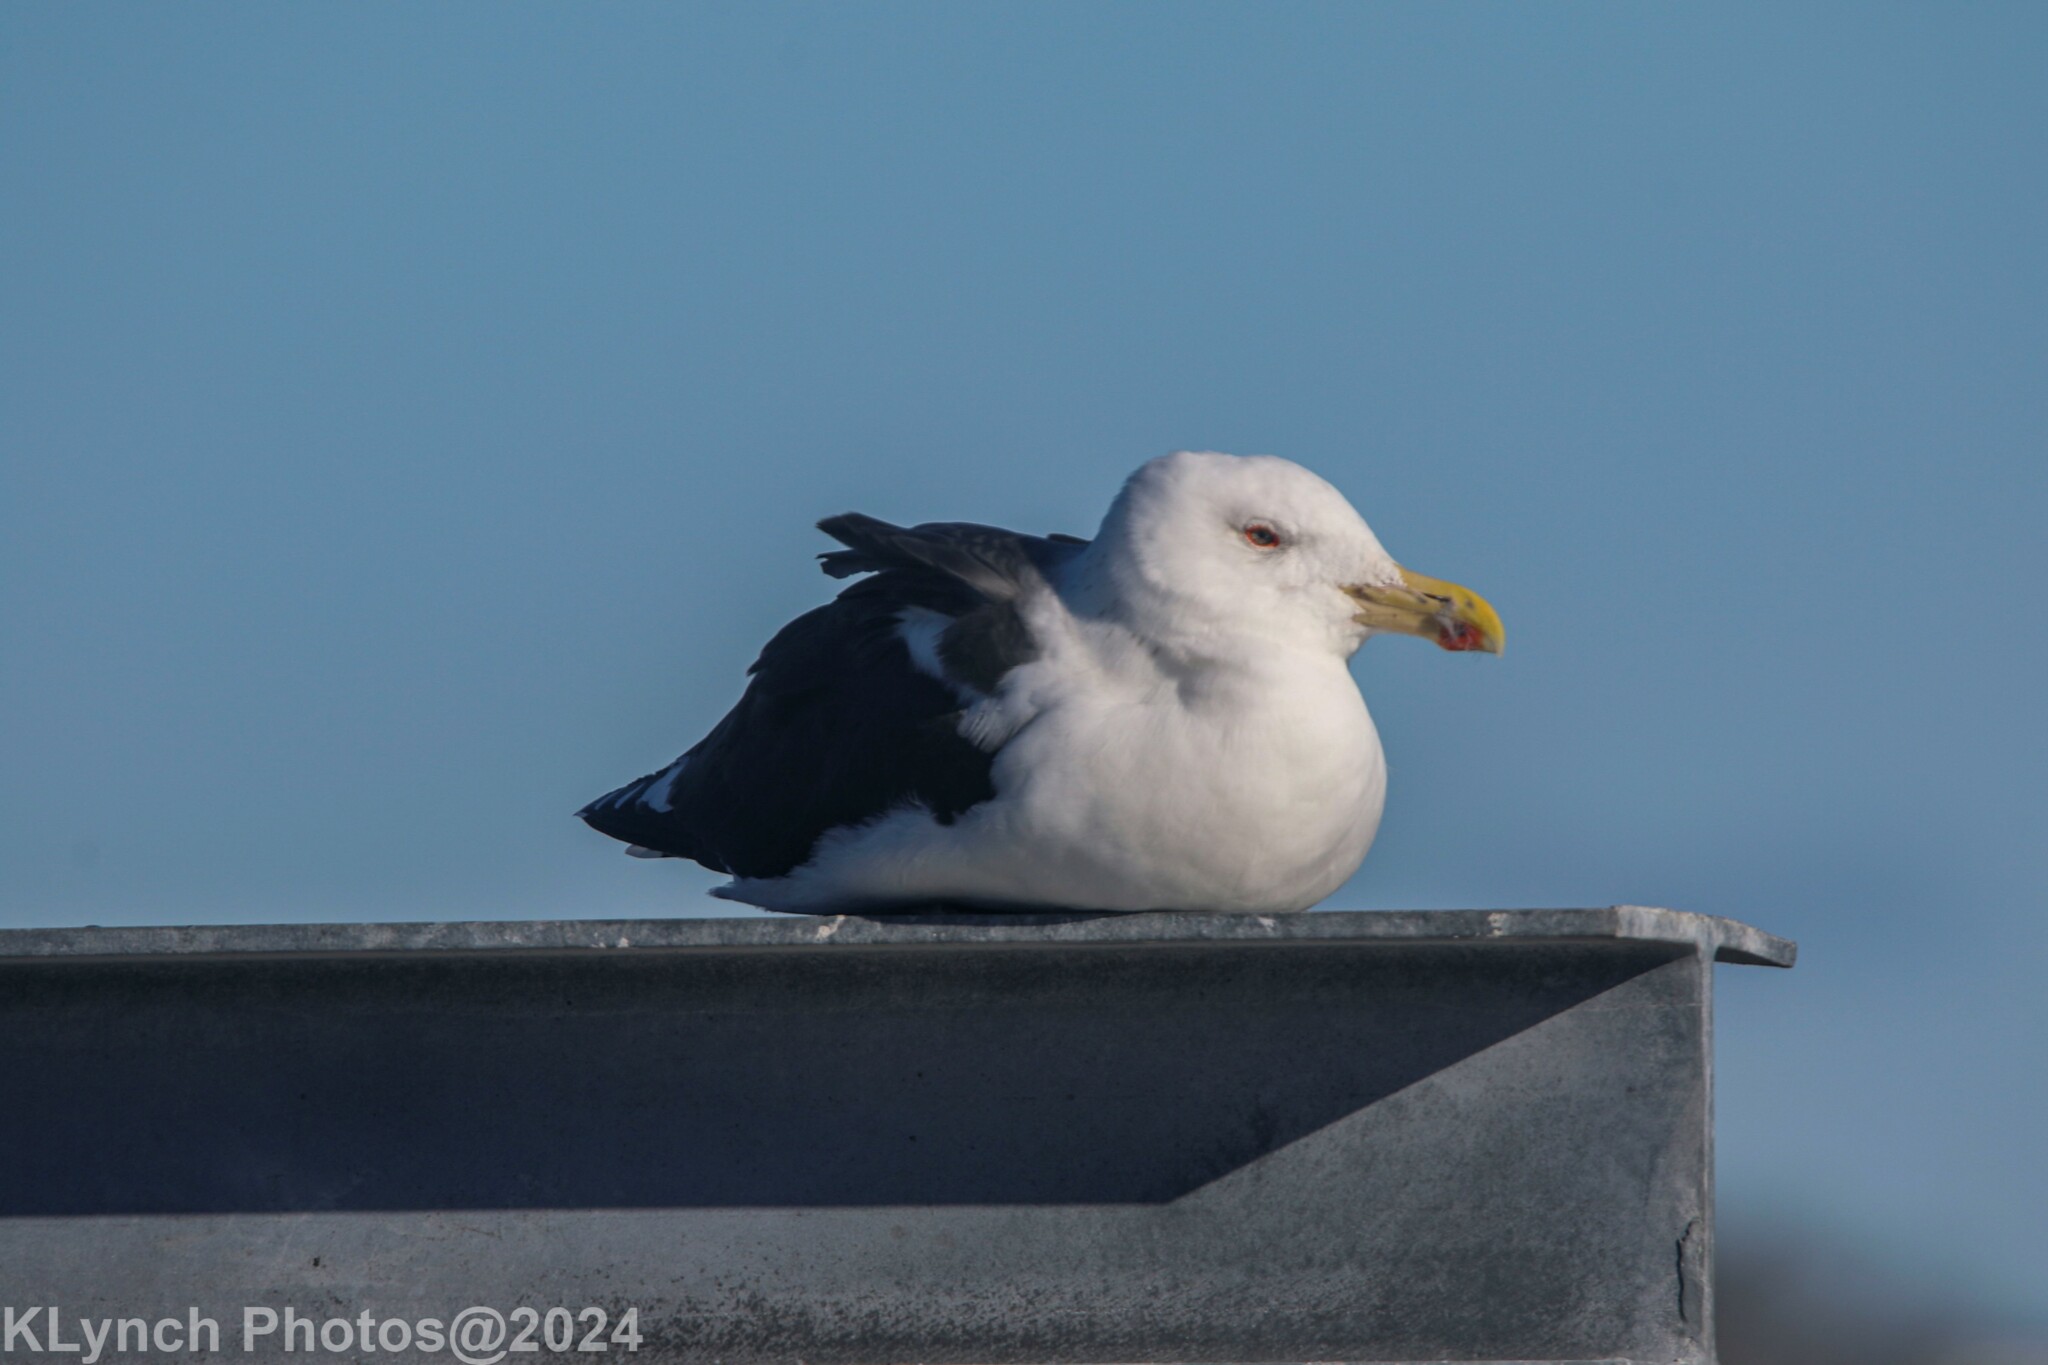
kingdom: Animalia
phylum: Chordata
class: Aves
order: Charadriiformes
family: Laridae
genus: Larus
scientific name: Larus marinus
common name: Great black-backed gull
